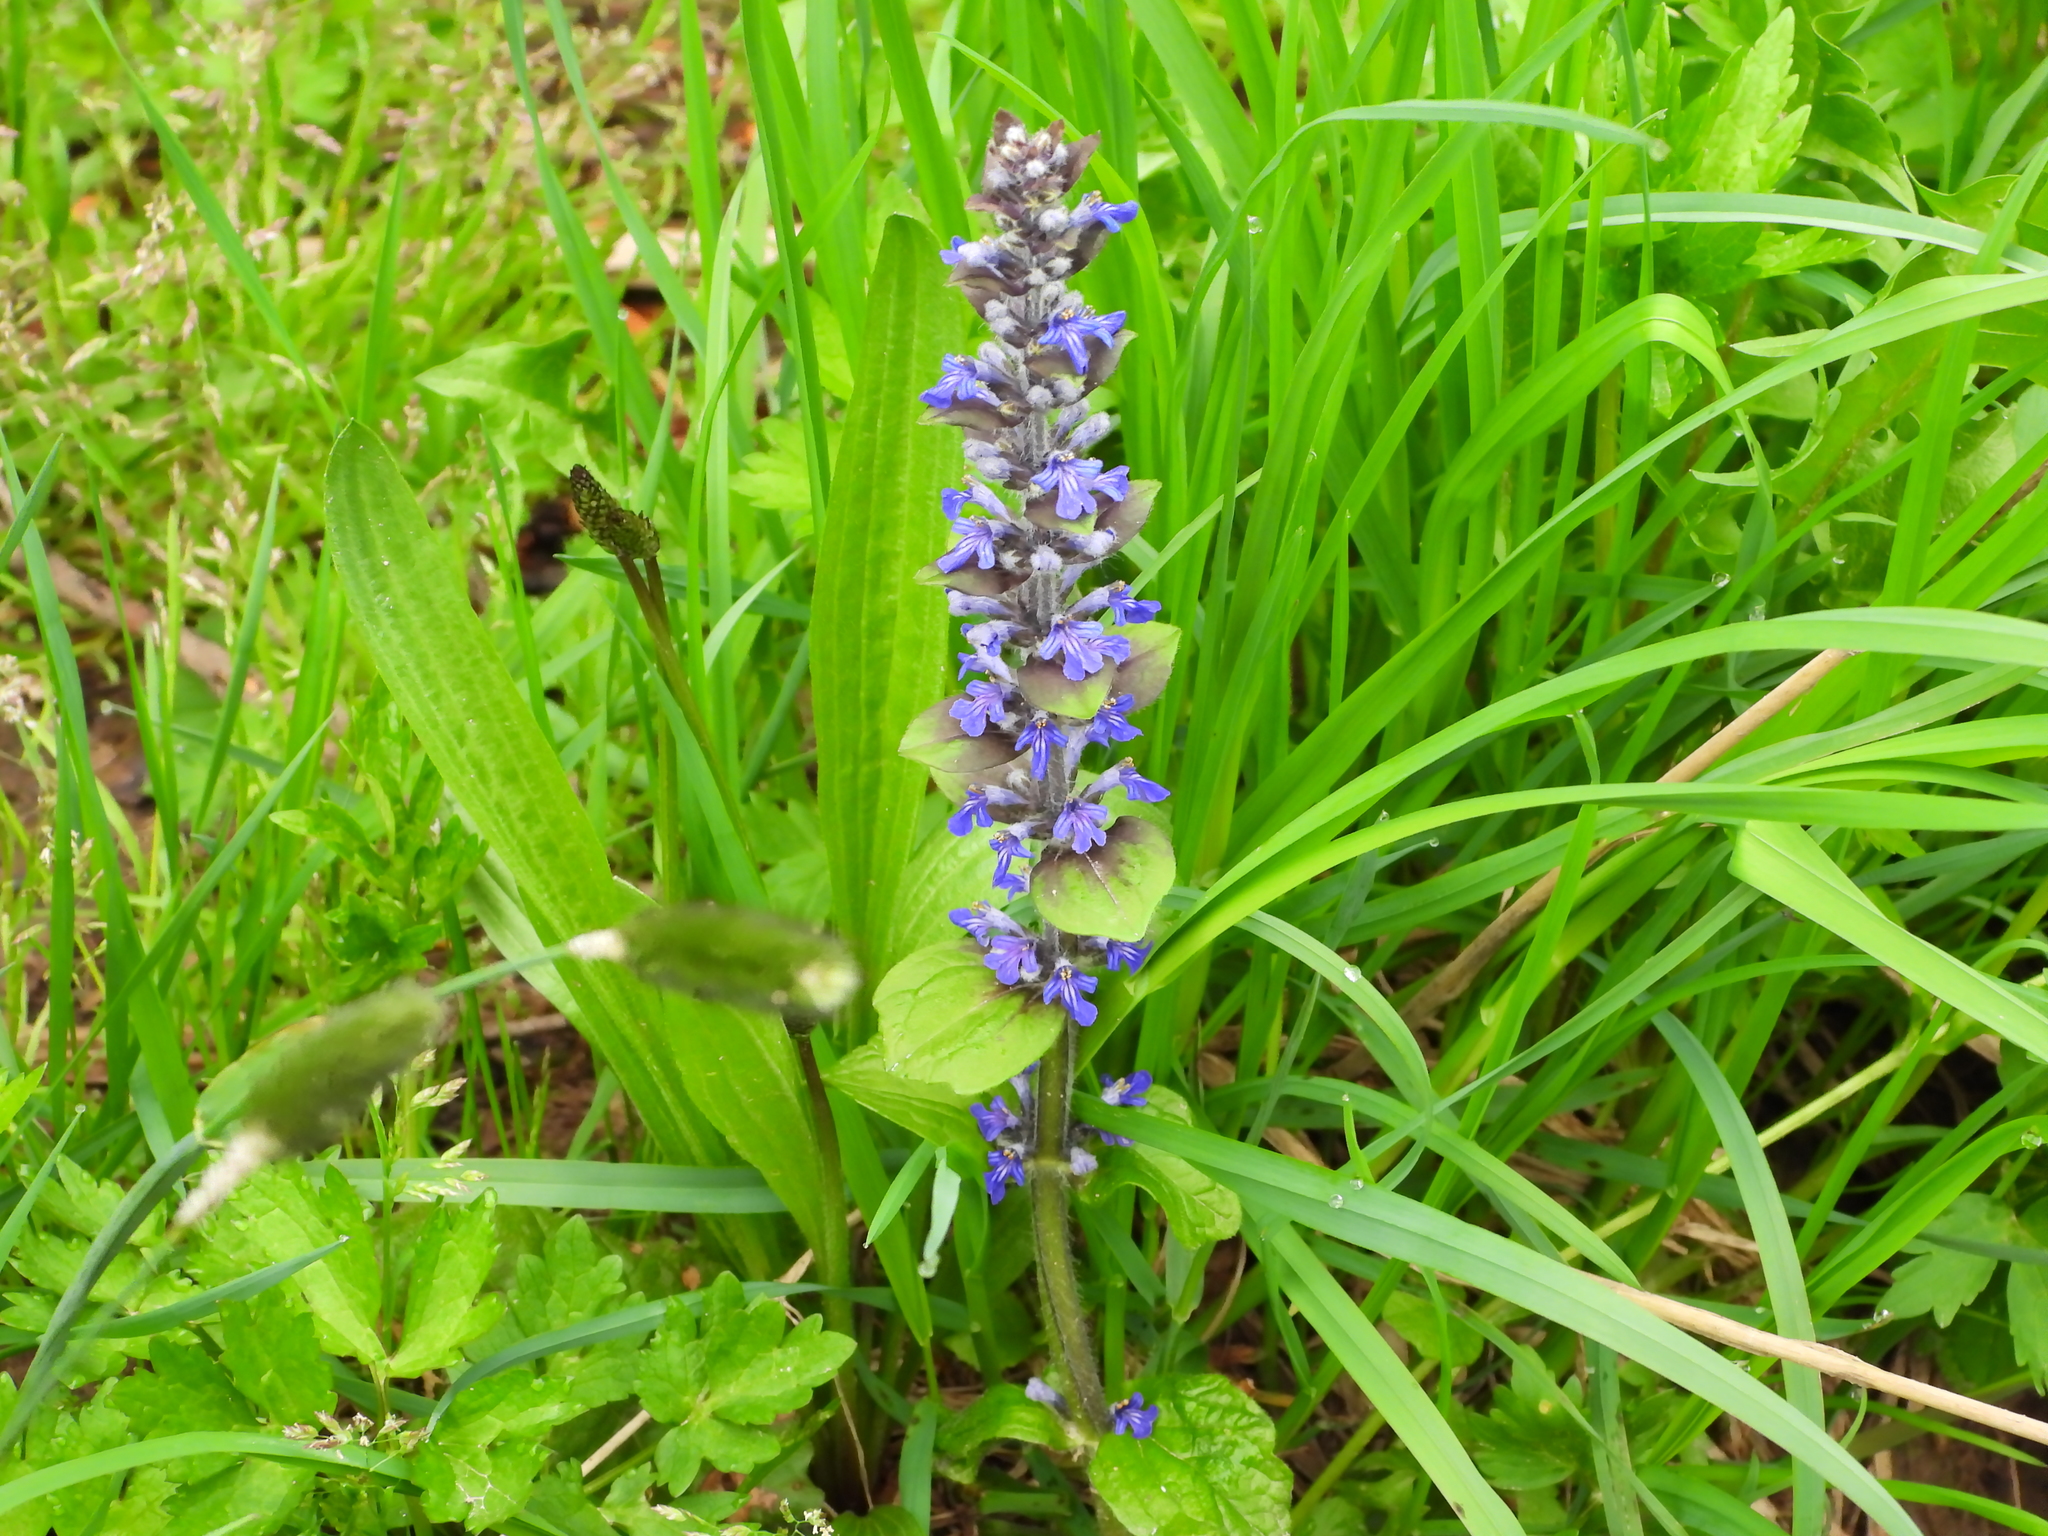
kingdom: Plantae
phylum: Tracheophyta
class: Magnoliopsida
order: Lamiales
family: Lamiaceae
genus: Ajuga
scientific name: Ajuga reptans
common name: Bugle
